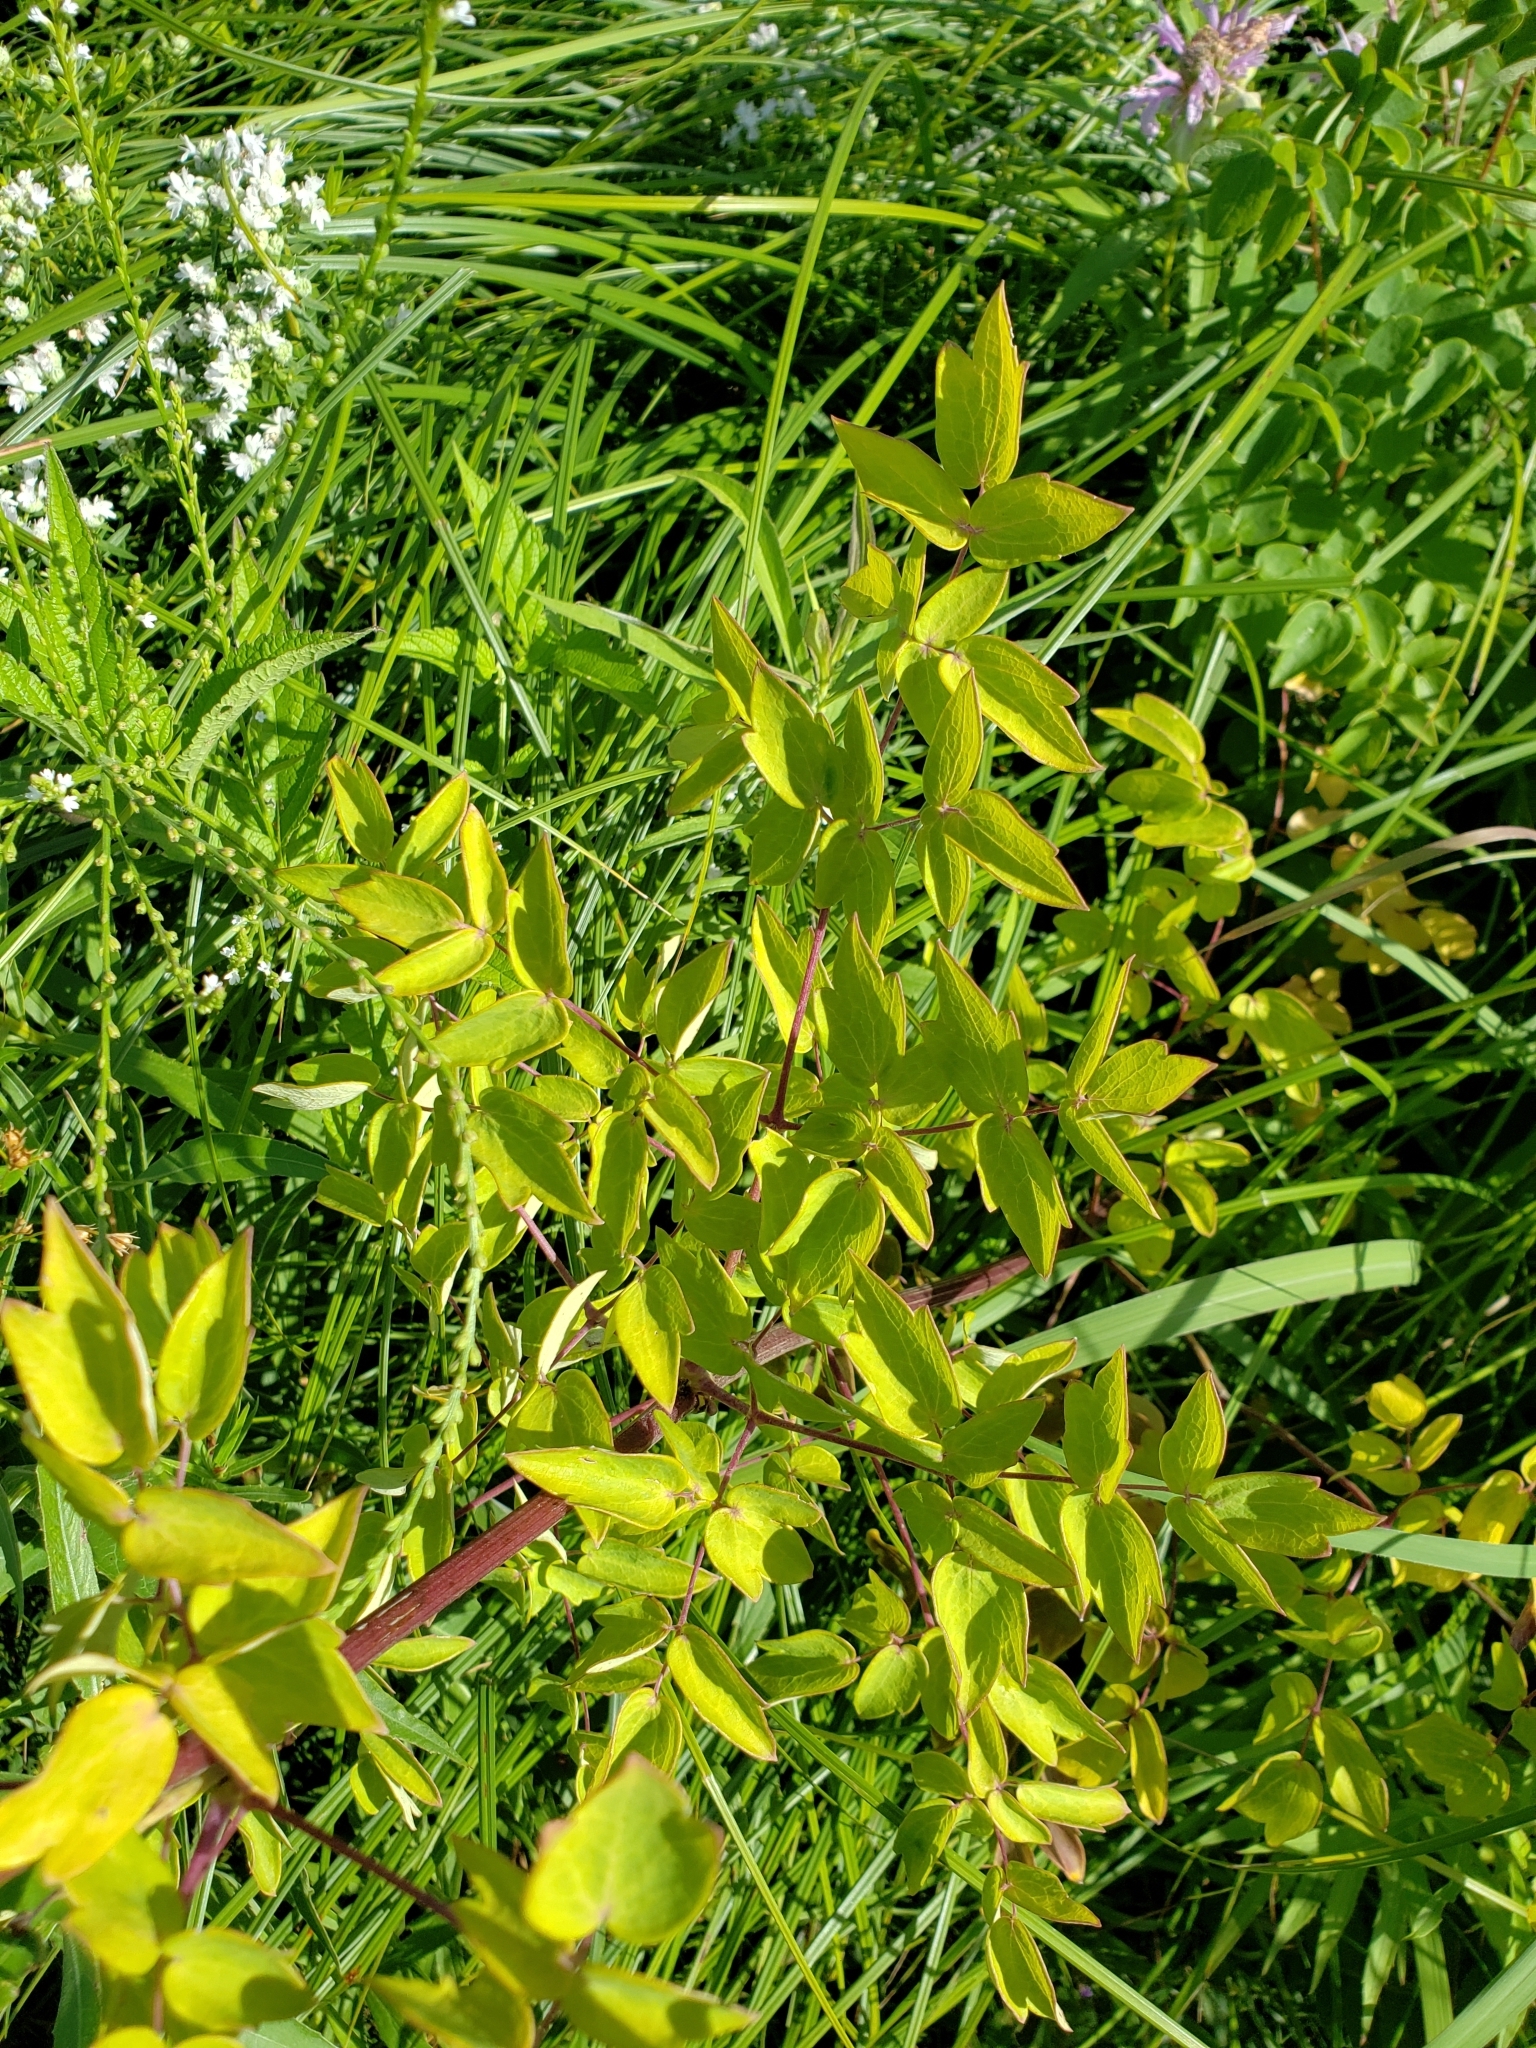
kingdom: Plantae
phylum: Tracheophyta
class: Magnoliopsida
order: Ranunculales
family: Ranunculaceae
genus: Thalictrum
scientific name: Thalictrum dasycarpum
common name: Purple meadow-rue
